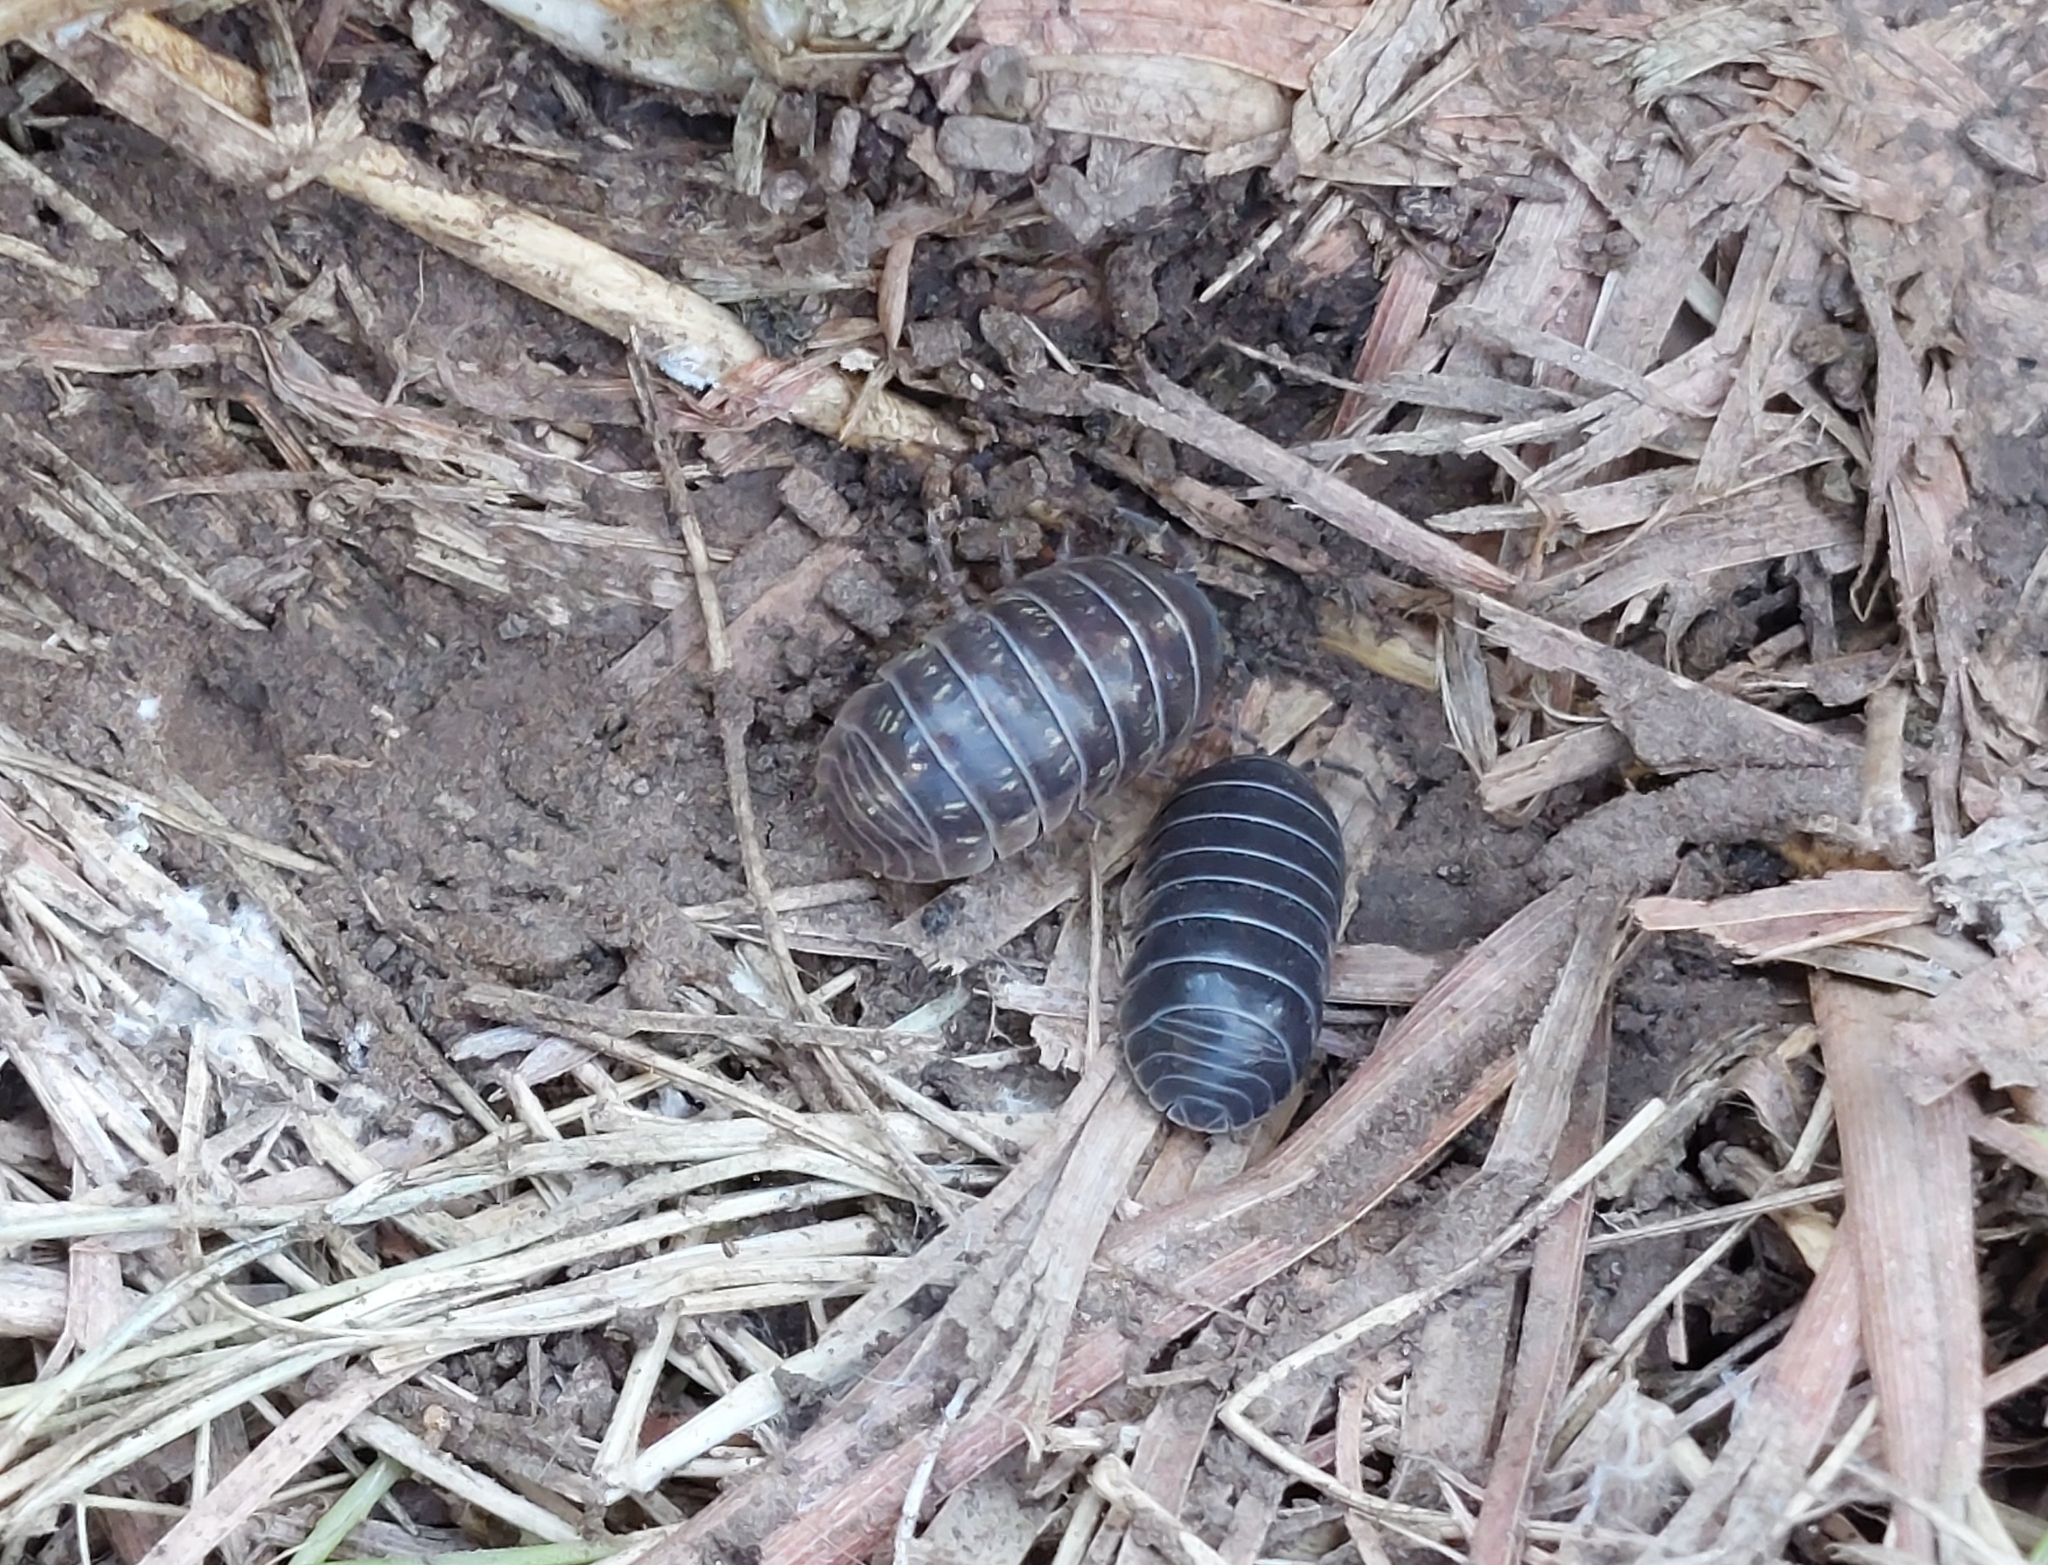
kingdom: Animalia
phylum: Arthropoda
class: Malacostraca
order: Isopoda
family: Armadillidiidae
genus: Armadillidium
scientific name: Armadillidium vulgare
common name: Common pill woodlouse
